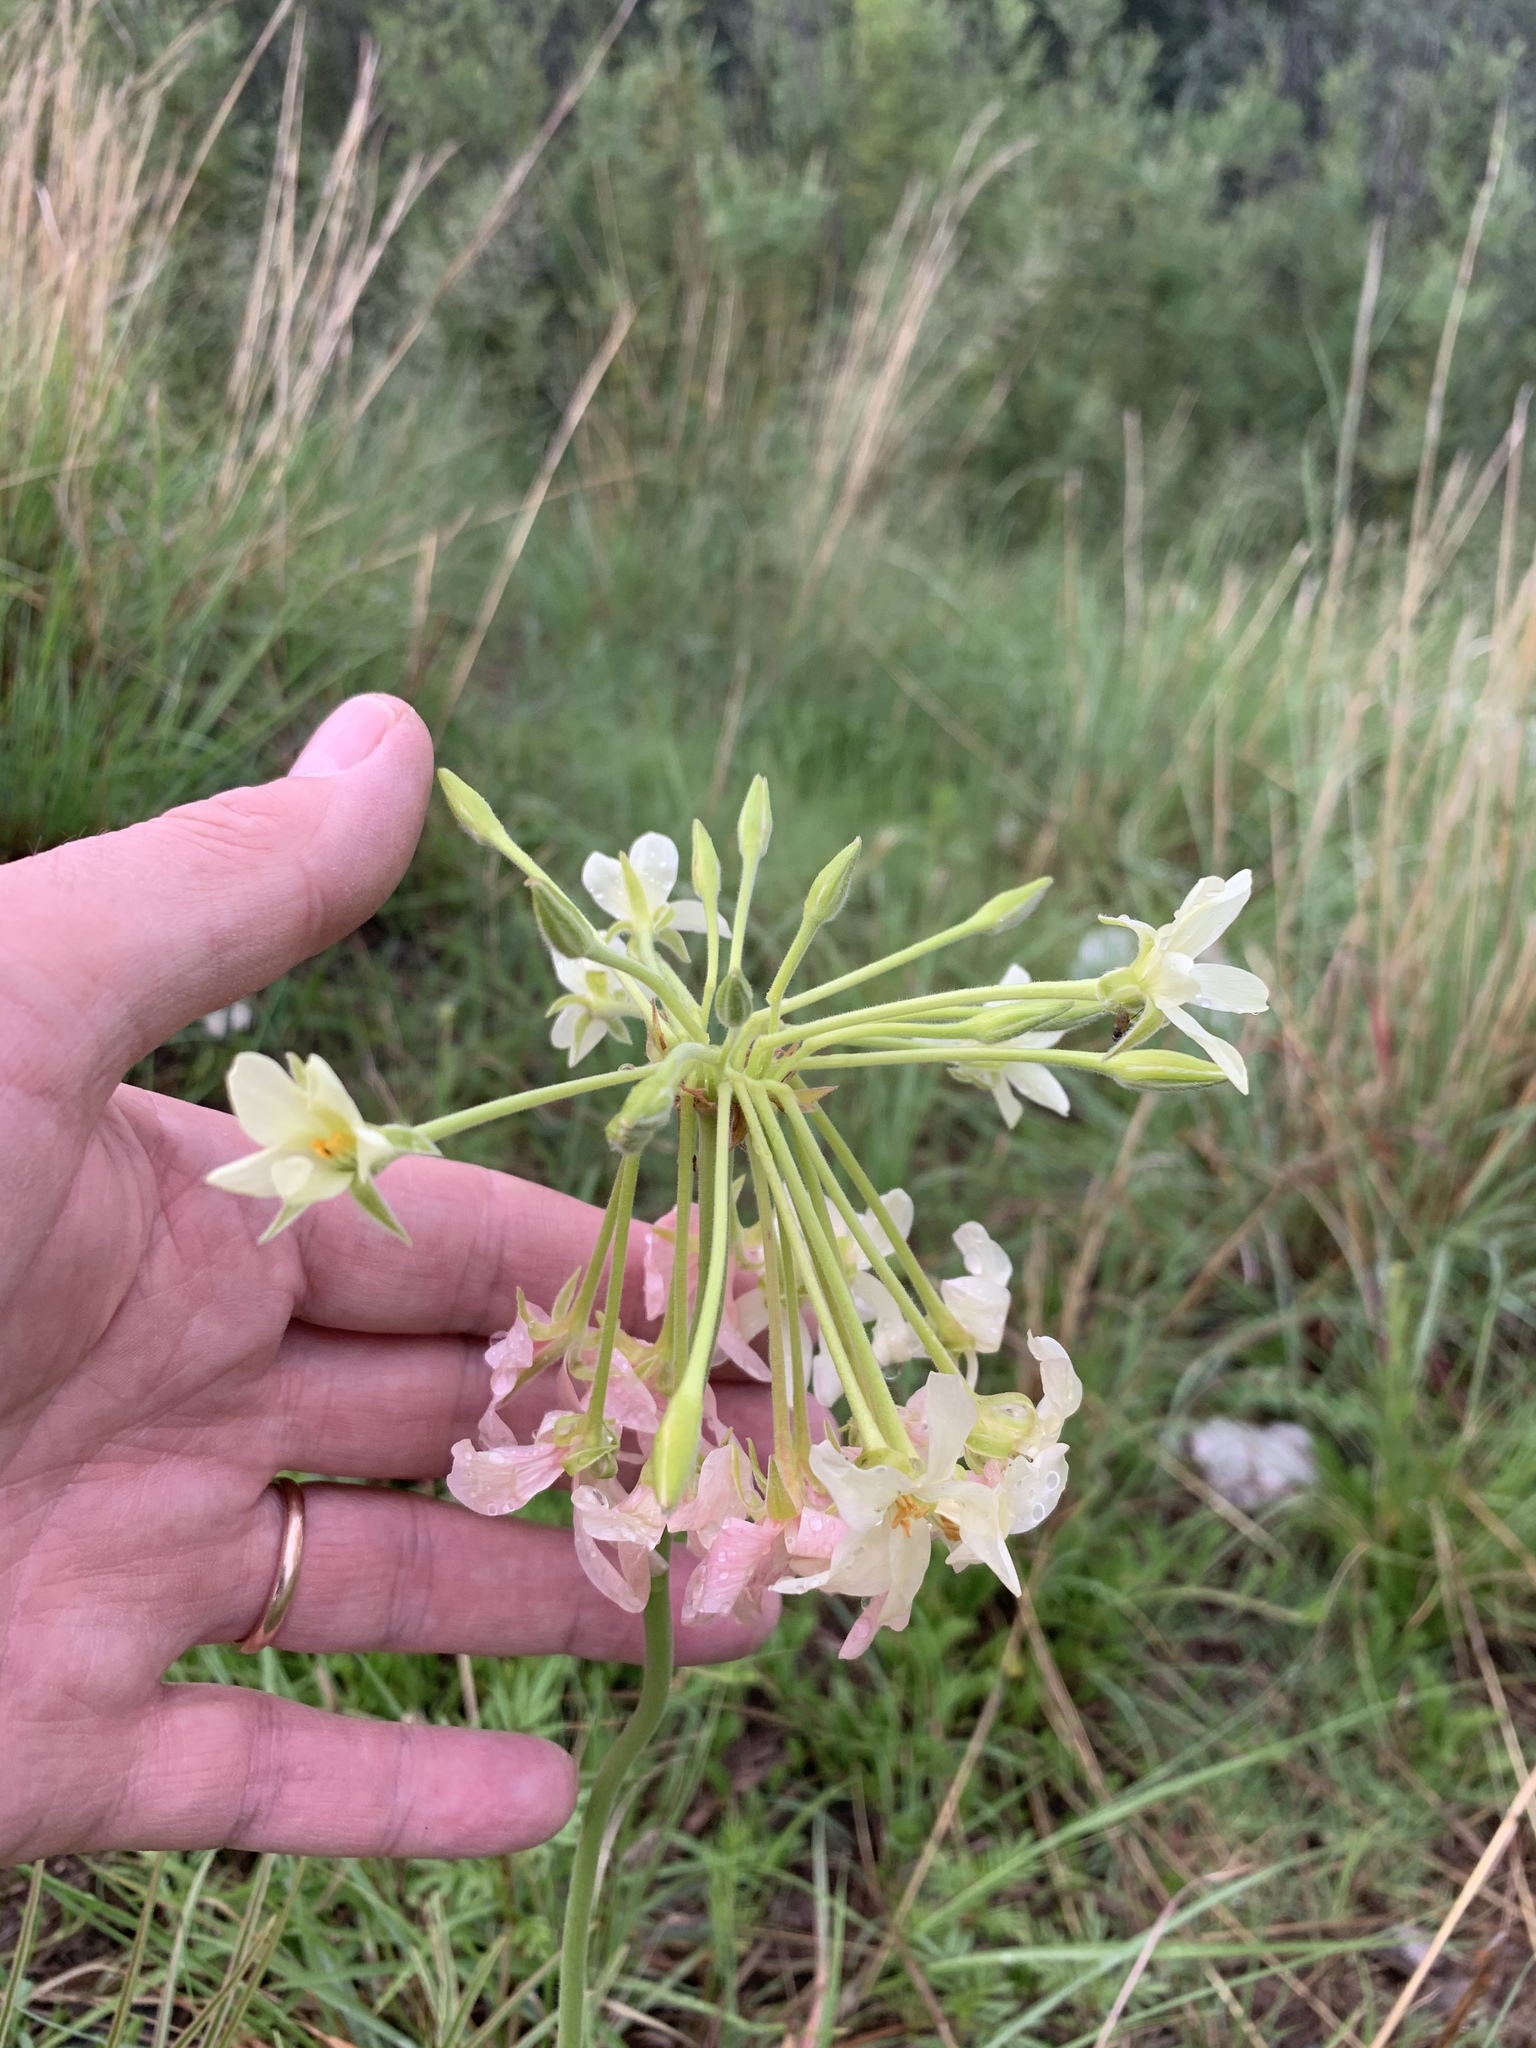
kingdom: Plantae
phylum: Tracheophyta
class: Magnoliopsida
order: Geraniales
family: Geraniaceae
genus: Pelargonium
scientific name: Pelargonium luridum
